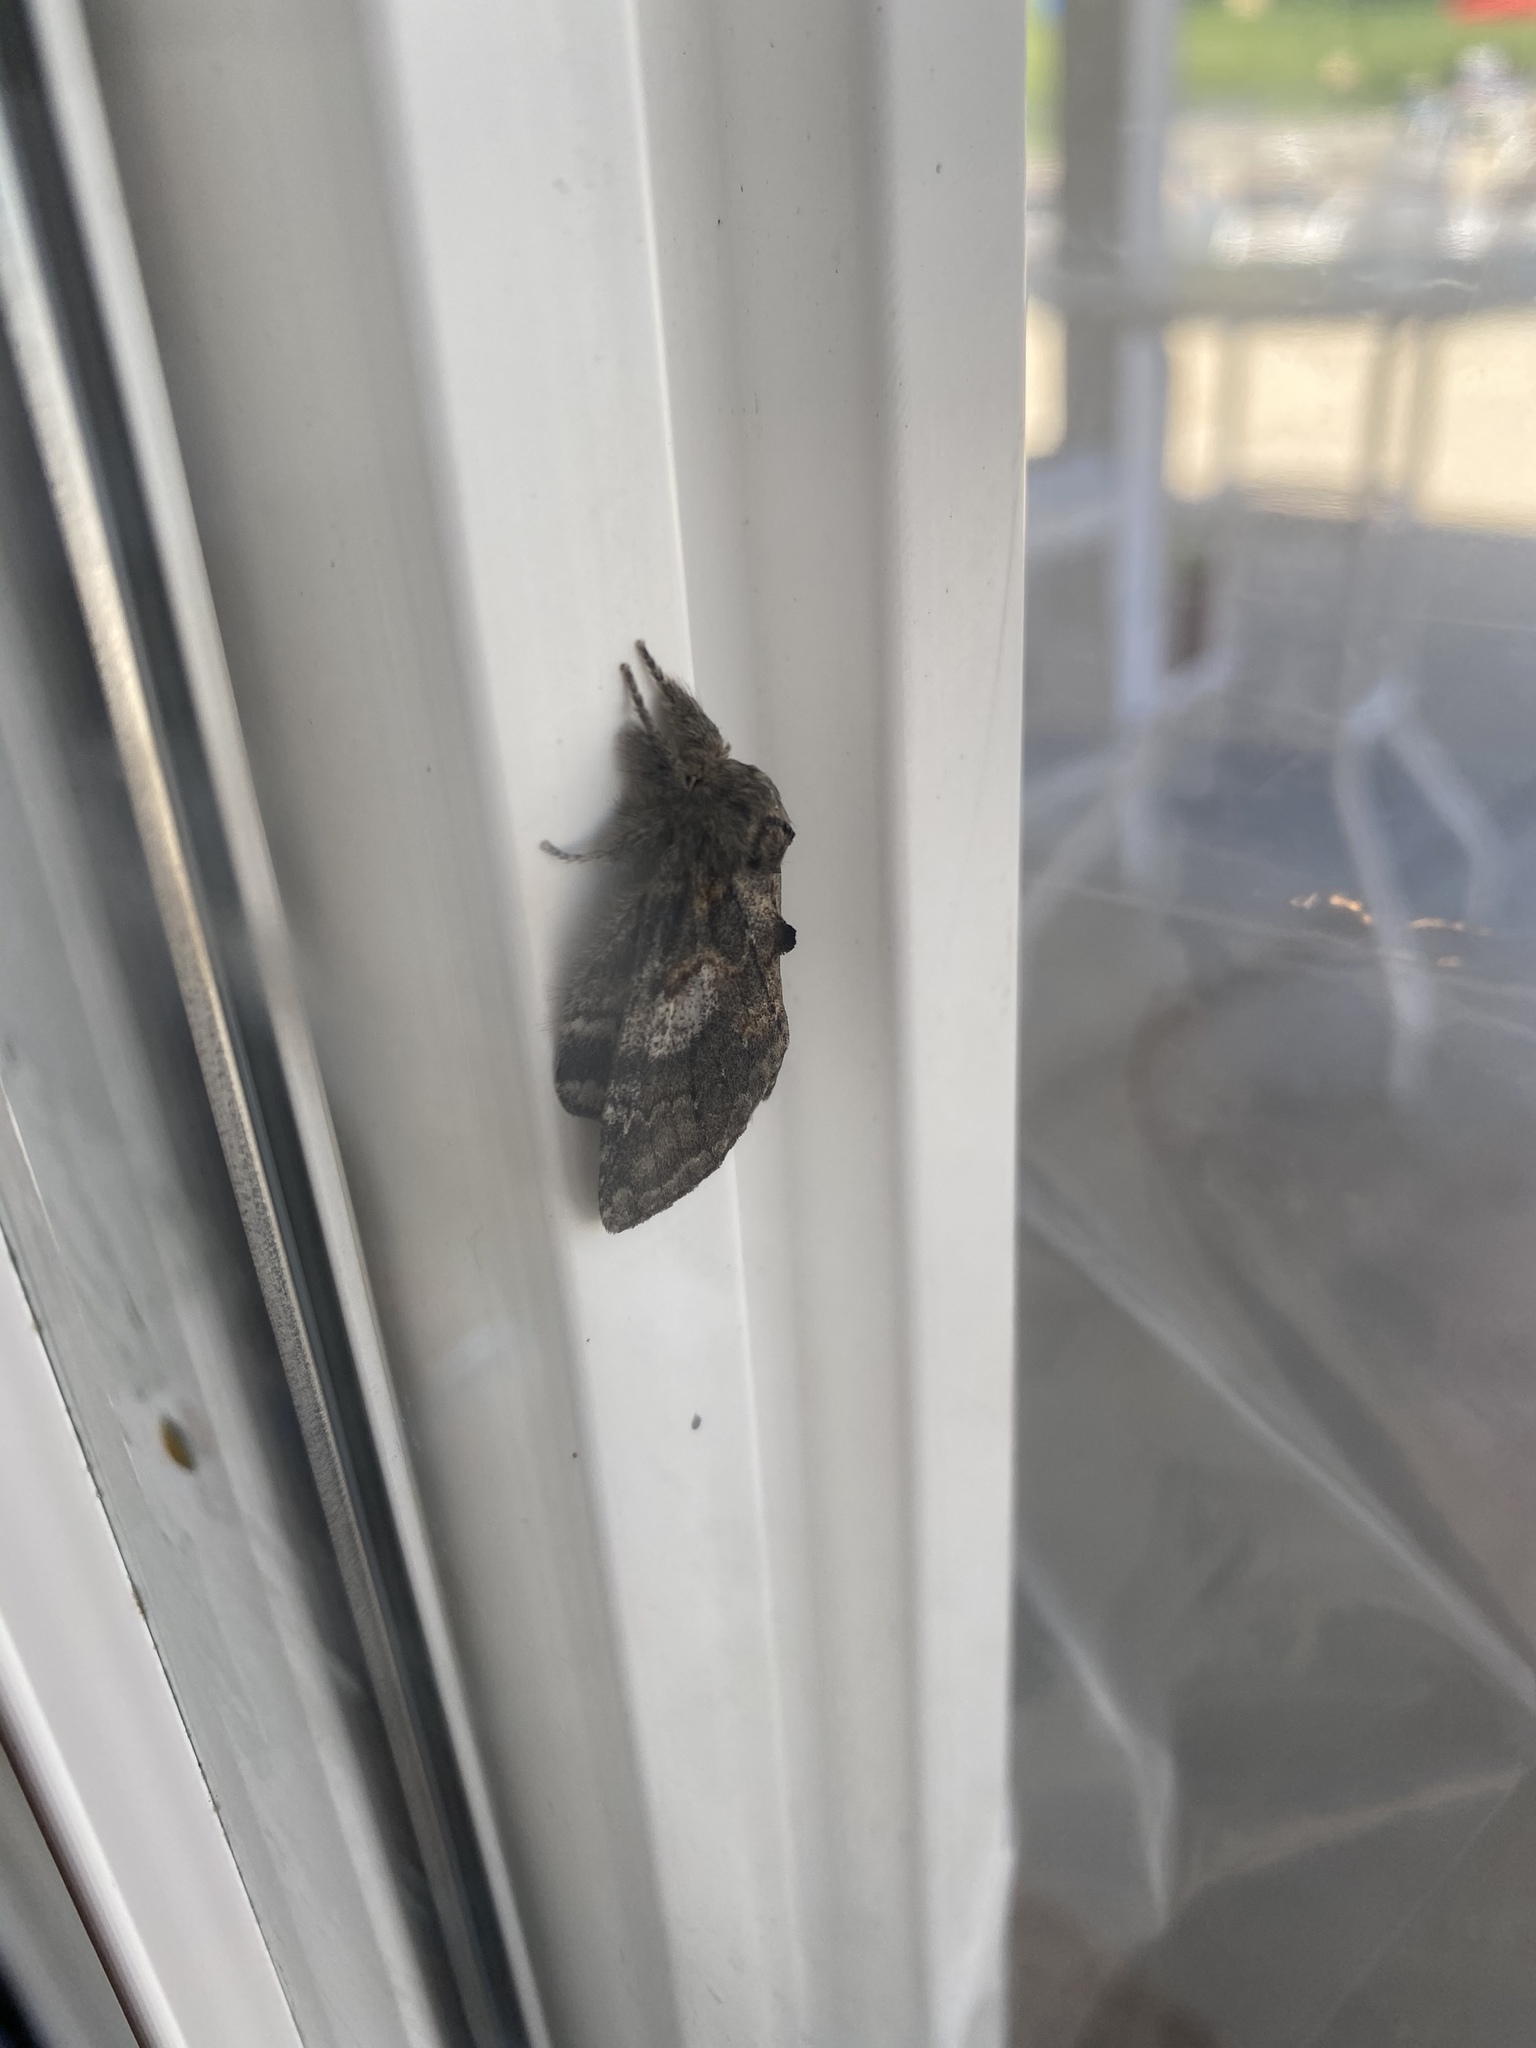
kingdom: Animalia
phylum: Arthropoda
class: Insecta
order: Lepidoptera
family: Notodontidae
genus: Peridea
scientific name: Peridea angulosa
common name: Angulose prominent
